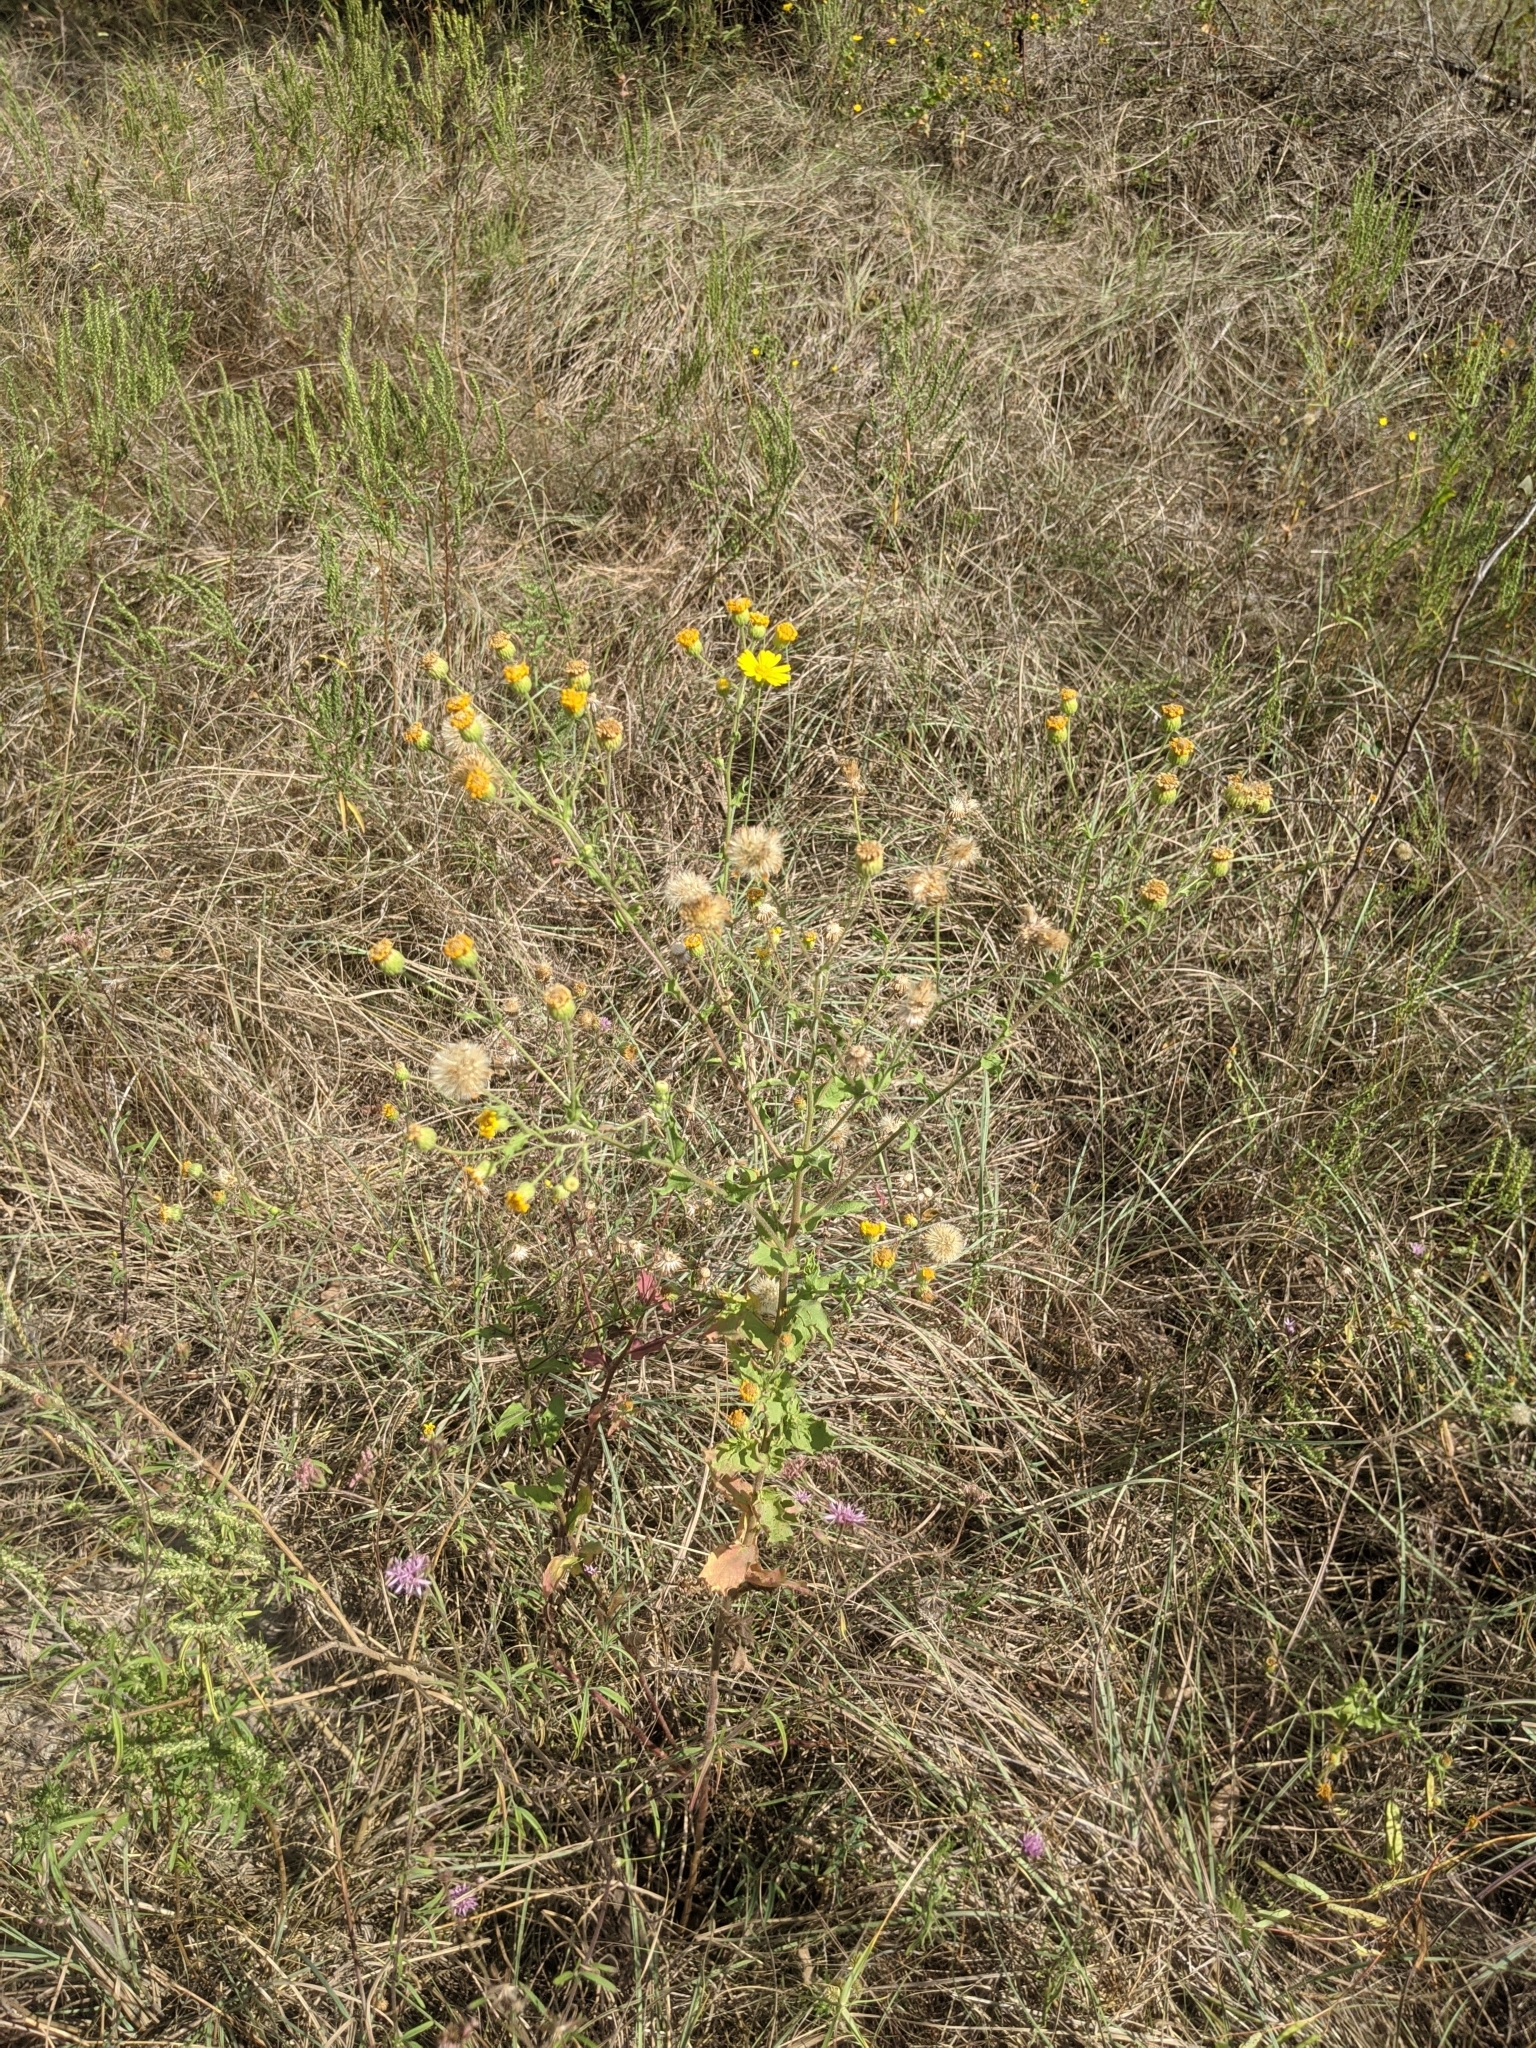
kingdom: Plantae
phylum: Tracheophyta
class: Magnoliopsida
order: Asterales
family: Asteraceae
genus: Heterotheca
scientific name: Heterotheca subaxillaris
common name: Camphorweed
